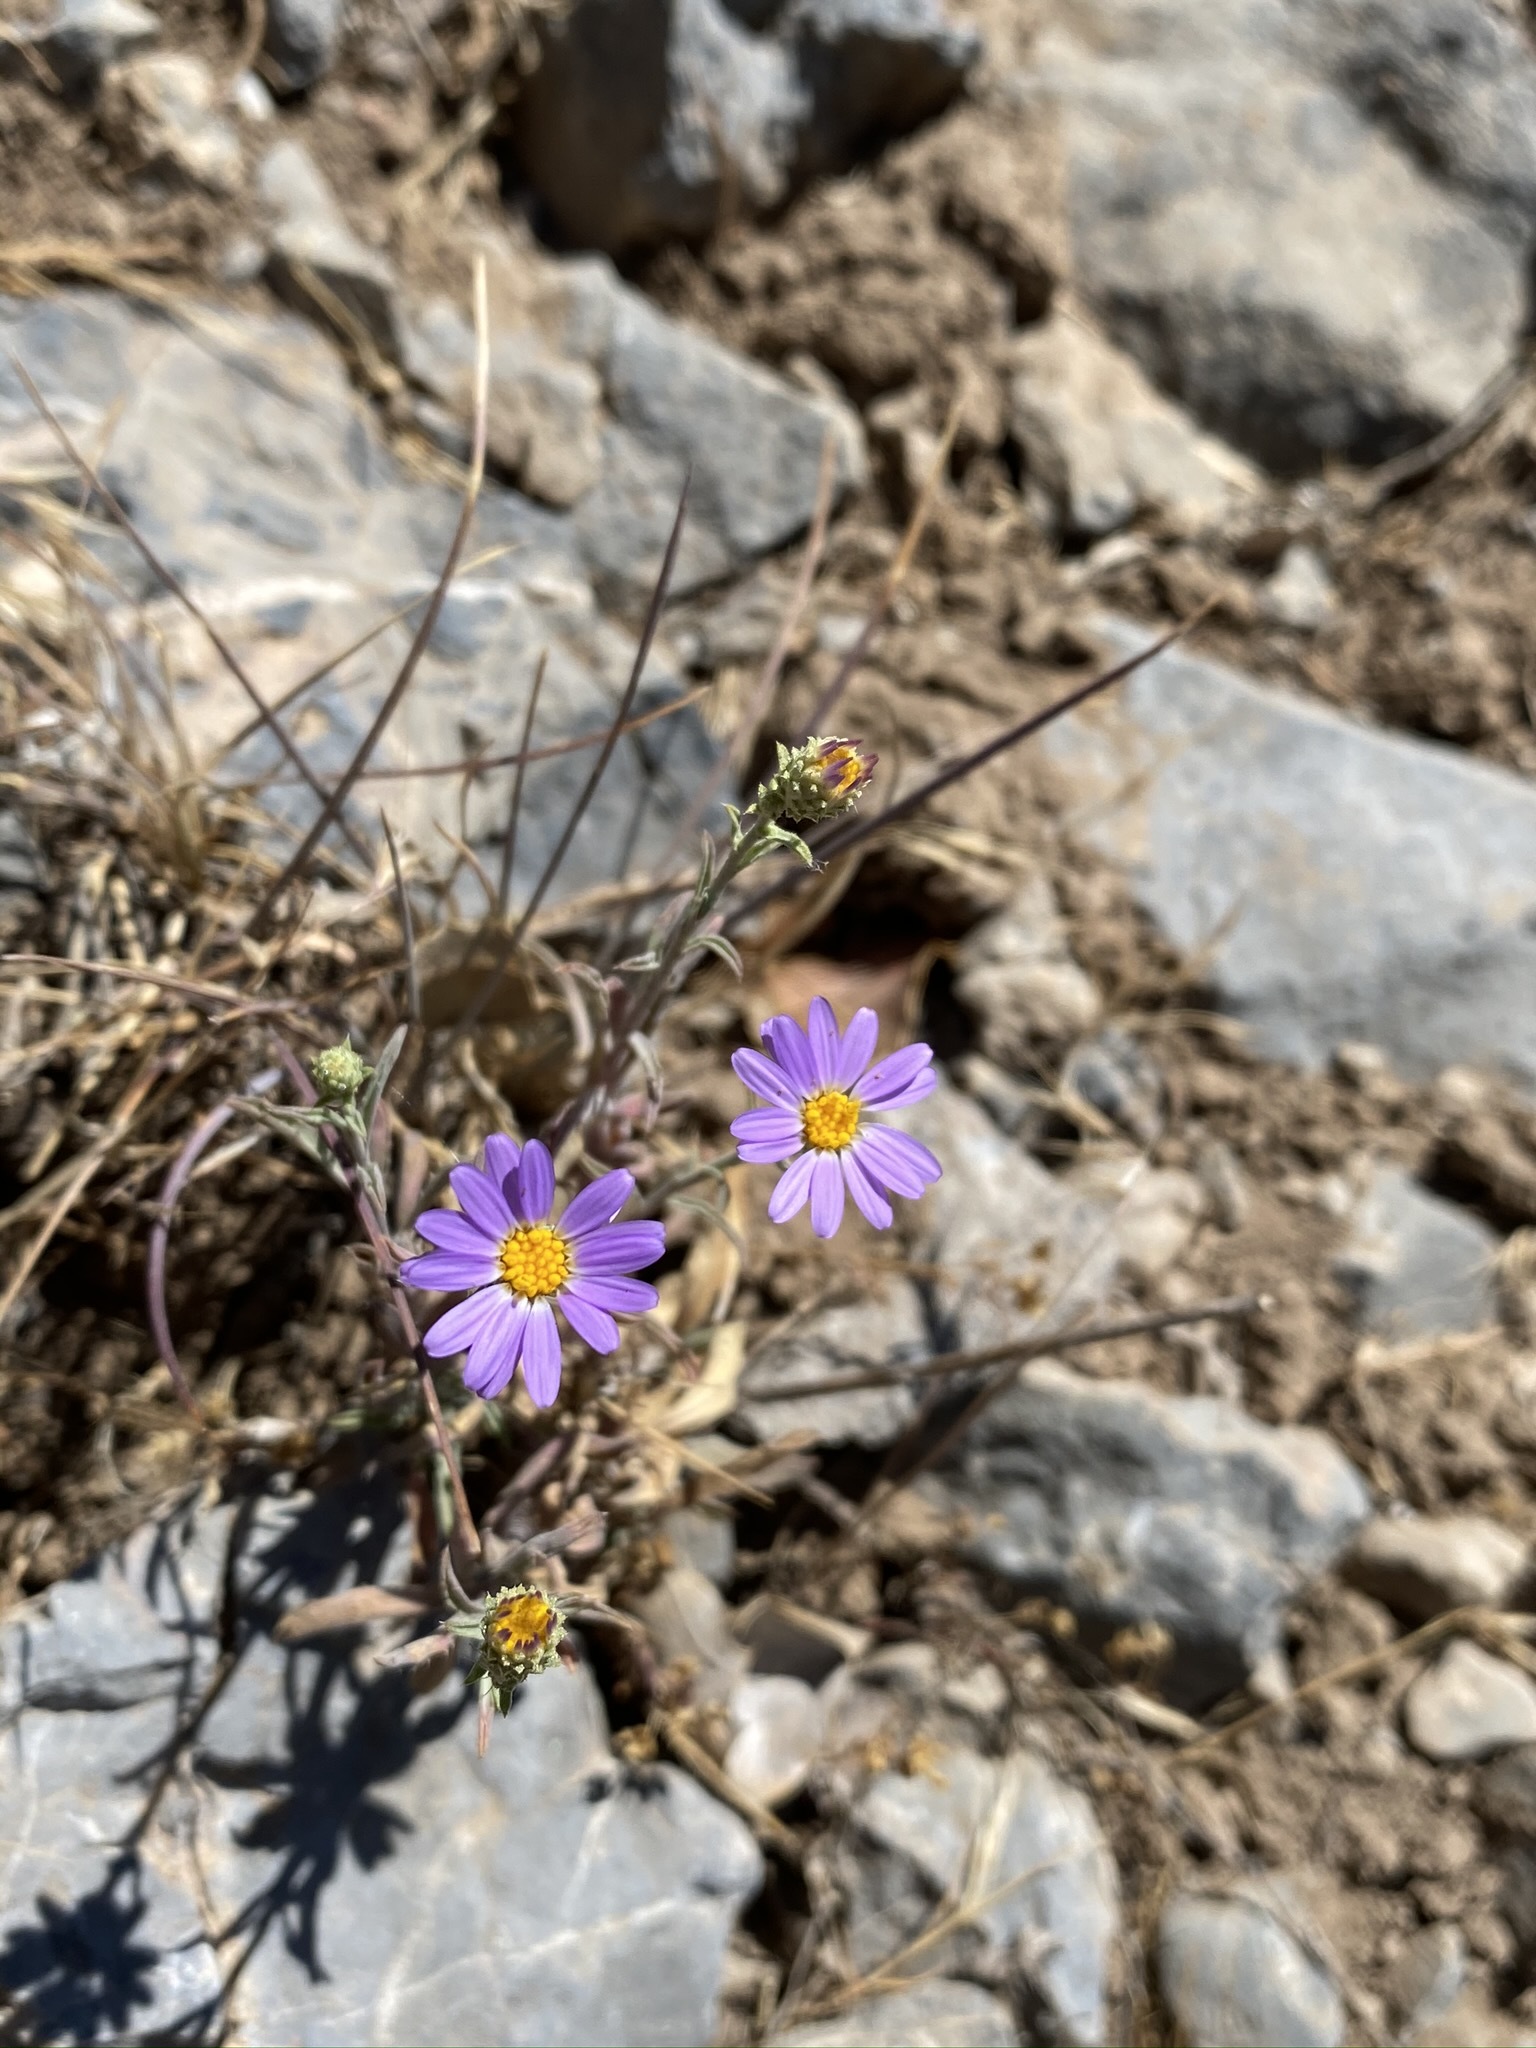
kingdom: Plantae
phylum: Tracheophyta
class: Magnoliopsida
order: Asterales
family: Asteraceae
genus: Dieteria
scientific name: Dieteria canescens
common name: Hoary-aster
